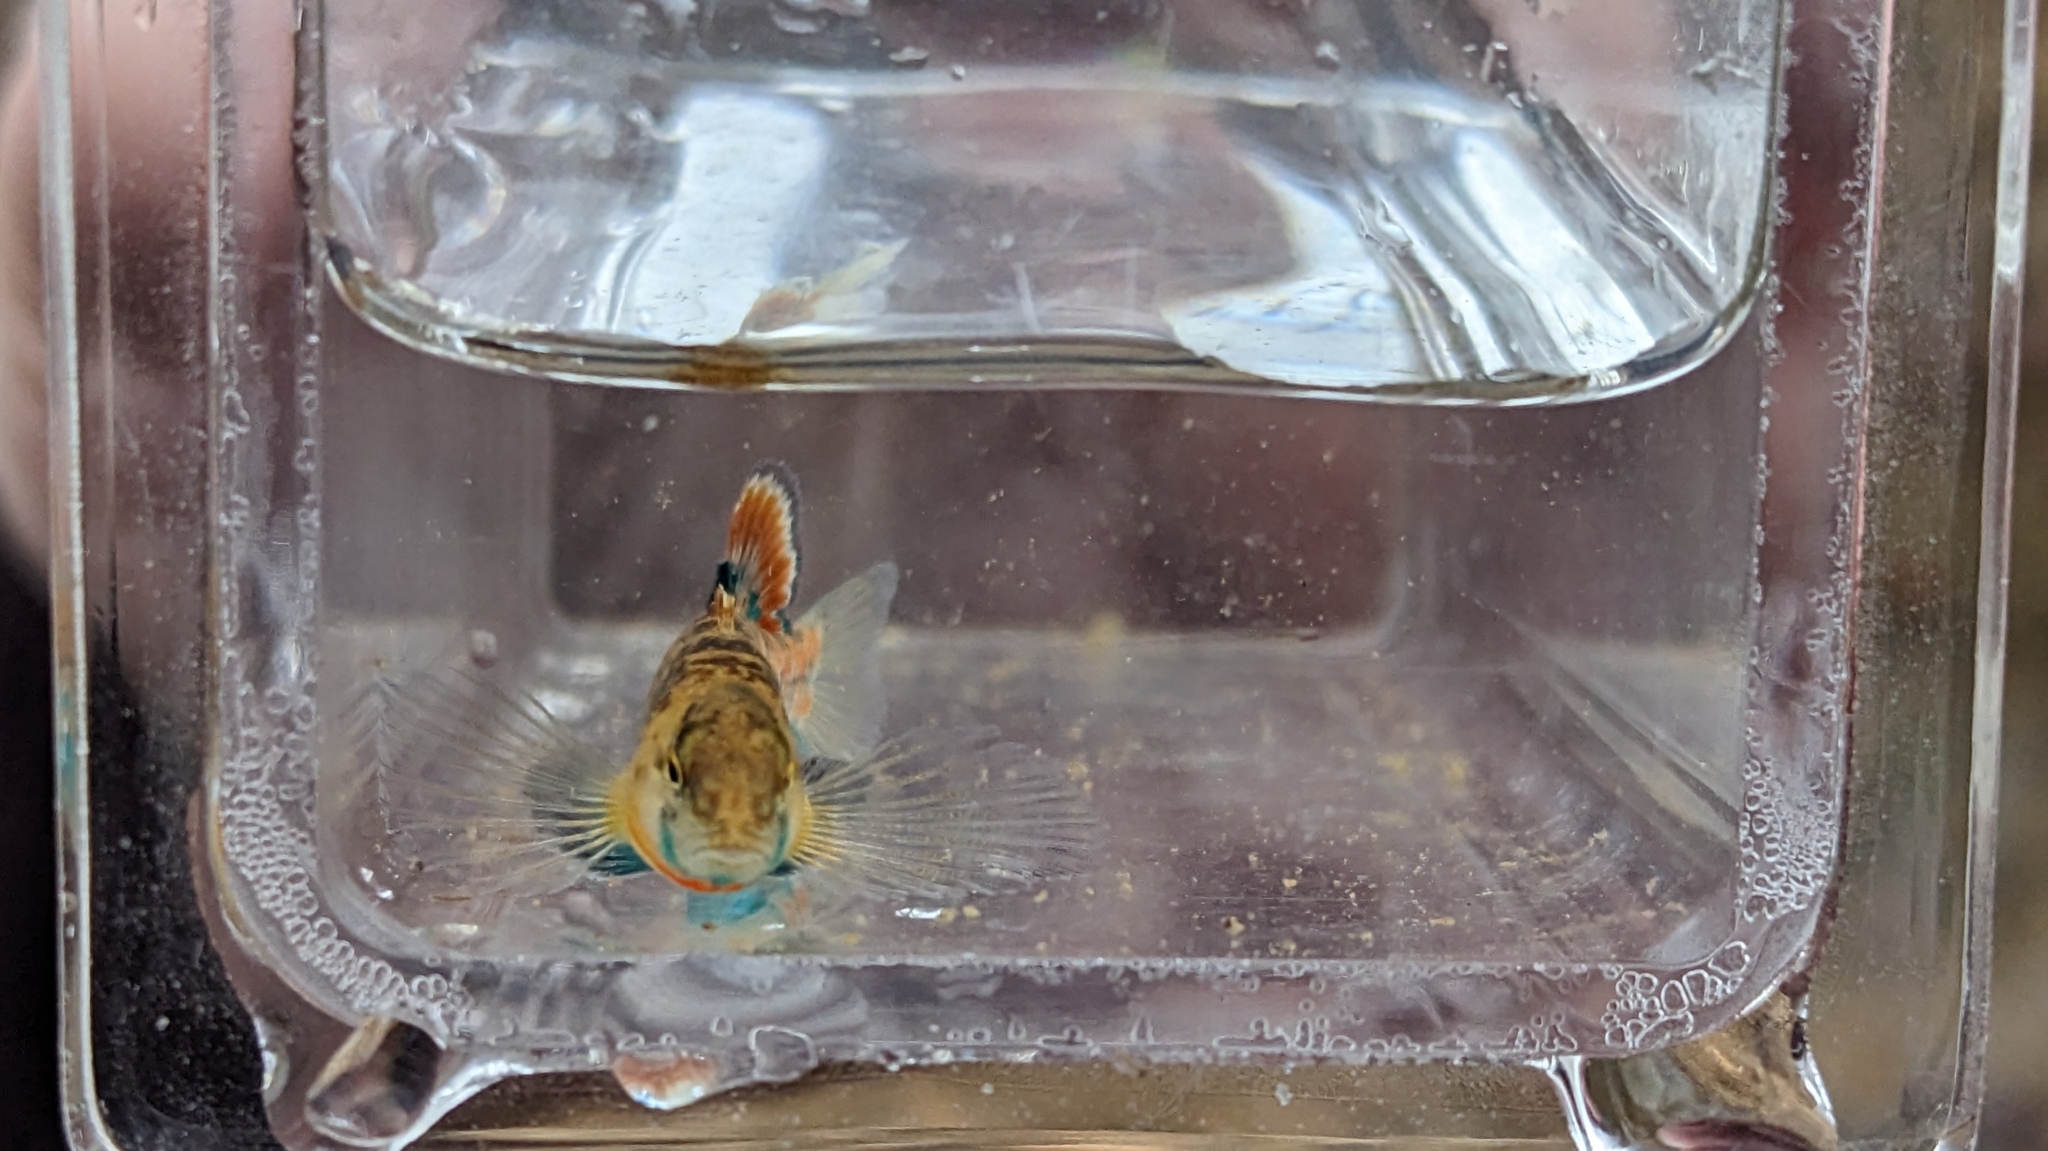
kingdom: Animalia
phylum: Chordata
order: Perciformes
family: Percidae
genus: Etheostoma
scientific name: Etheostoma caeruleum
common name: Rainbow darter
